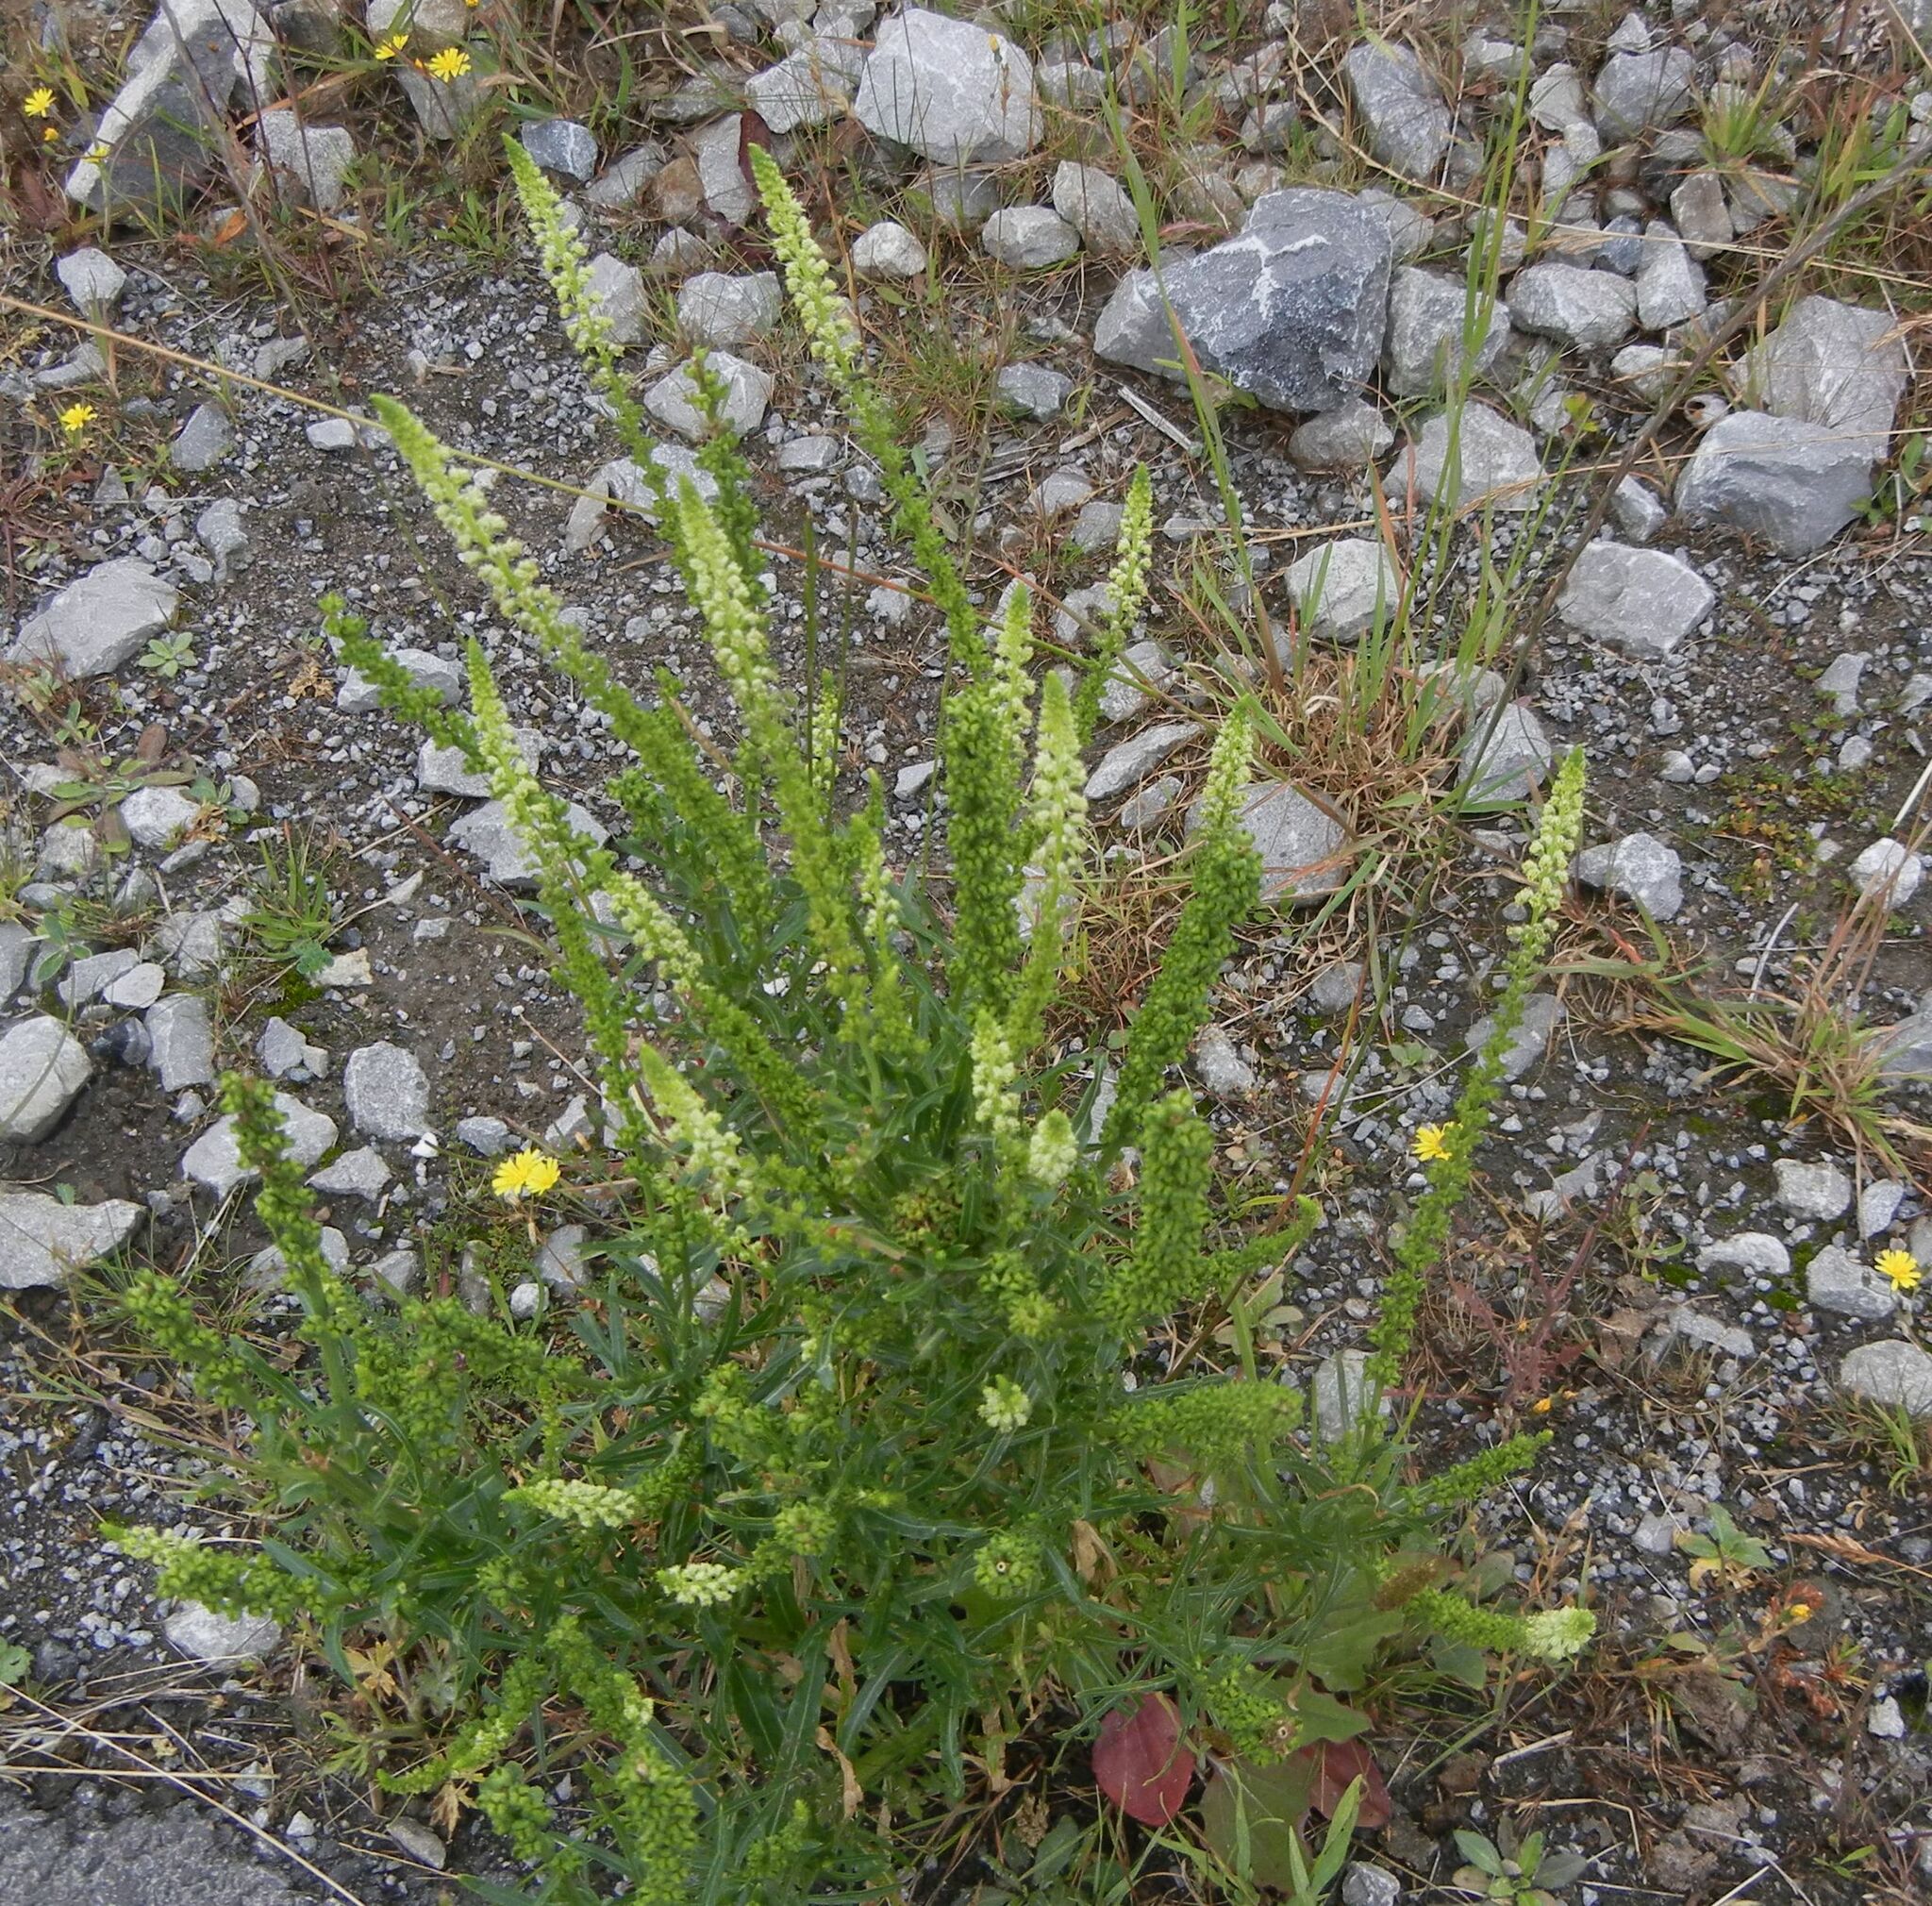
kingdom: Plantae
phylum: Tracheophyta
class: Magnoliopsida
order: Brassicales
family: Resedaceae
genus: Reseda
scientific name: Reseda luteola
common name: Weld
